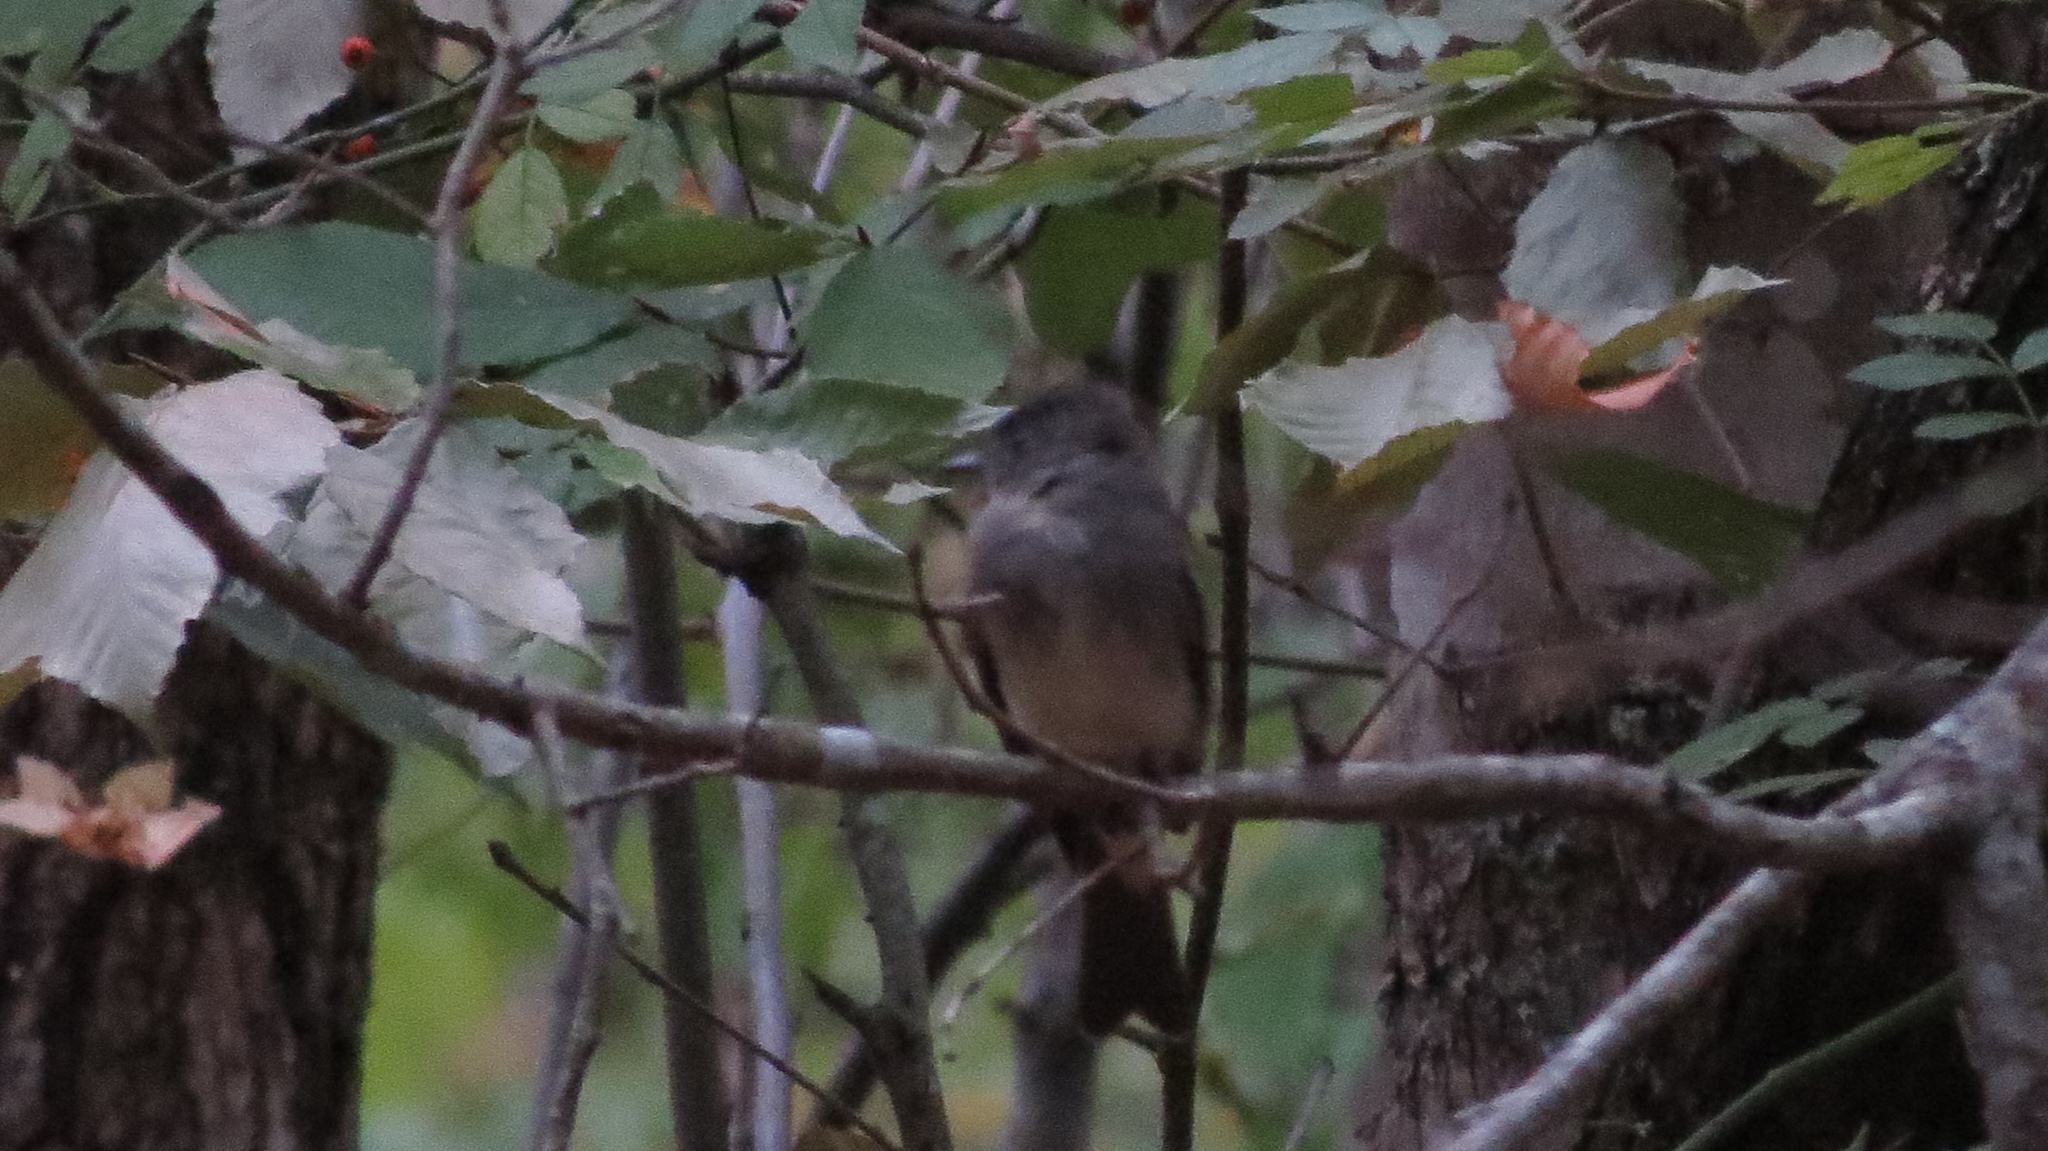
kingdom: Animalia
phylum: Chordata
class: Aves
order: Passeriformes
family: Tyrannidae
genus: Contopus
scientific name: Contopus virens
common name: Eastern wood-pewee
